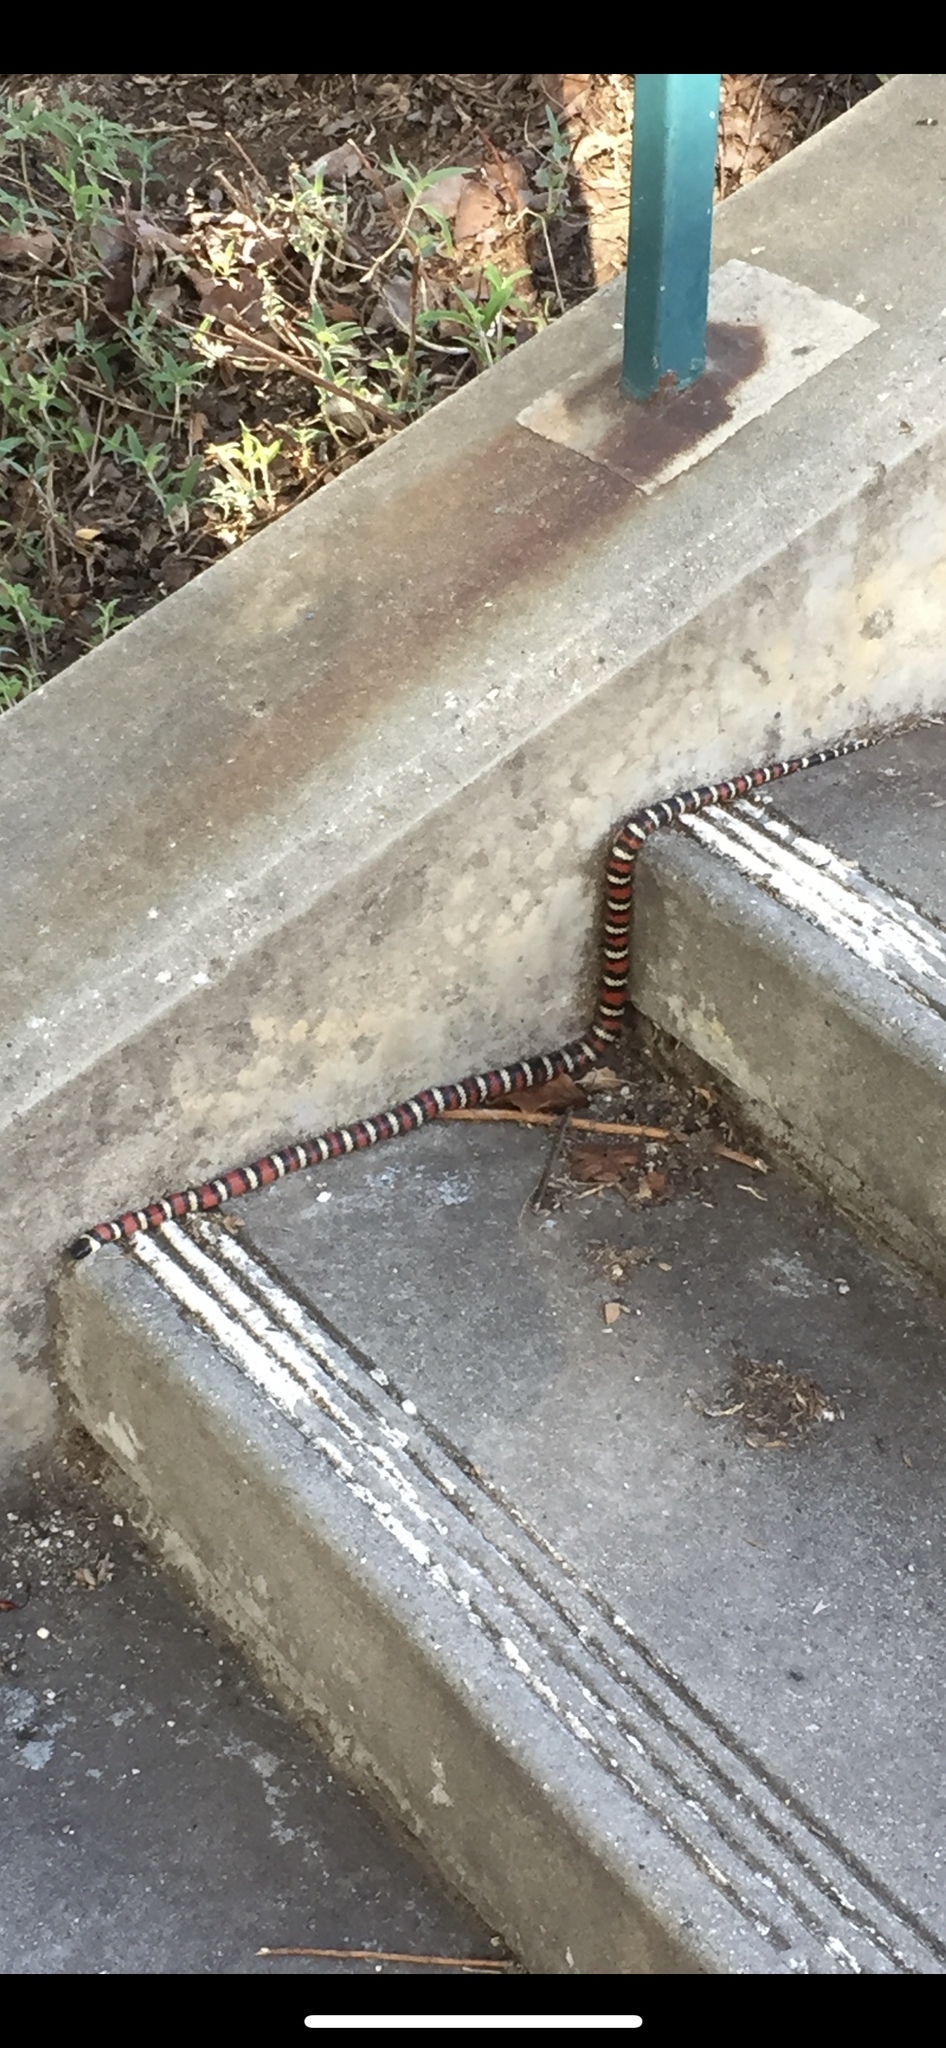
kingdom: Animalia
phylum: Chordata
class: Squamata
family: Colubridae
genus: Lampropeltis
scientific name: Lampropeltis zonata
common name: California mountain kingsnake
